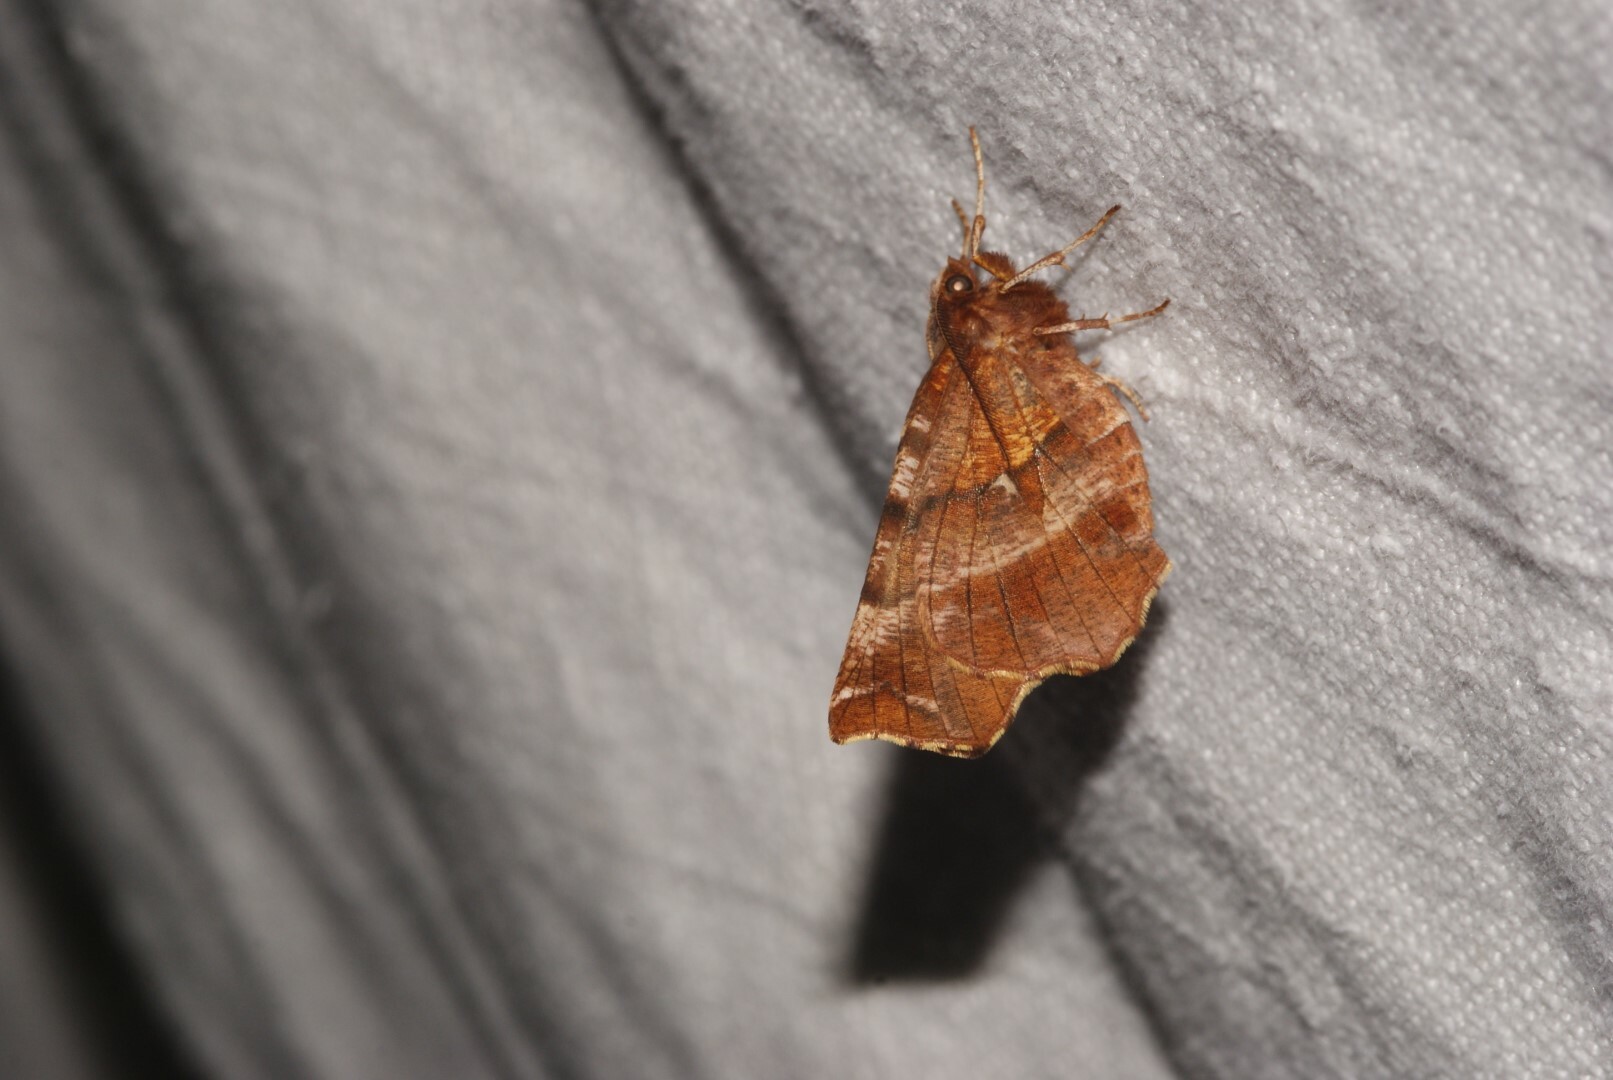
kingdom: Animalia
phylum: Arthropoda
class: Insecta
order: Lepidoptera
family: Geometridae
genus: Selenia
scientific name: Selenia dentaria
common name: Early thorn
